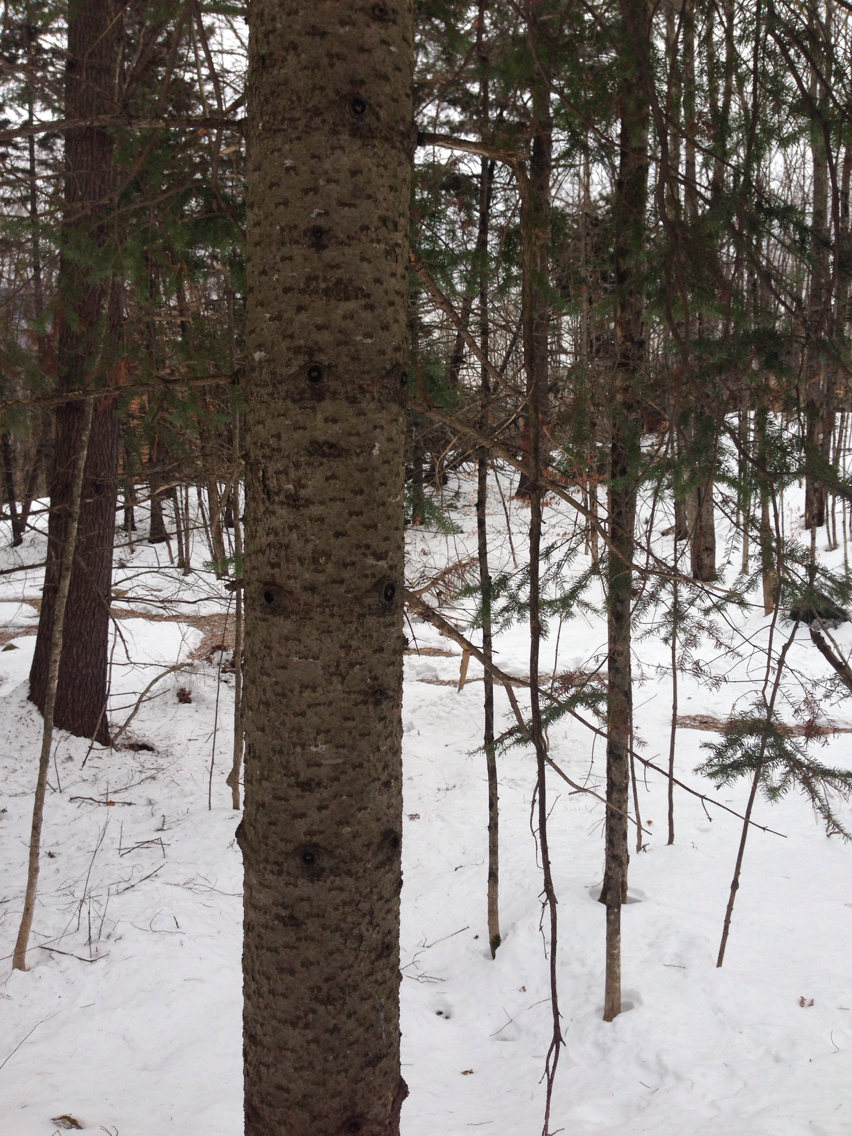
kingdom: Plantae
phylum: Tracheophyta
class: Pinopsida
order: Pinales
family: Pinaceae
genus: Abies
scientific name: Abies balsamea
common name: Balsam fir
